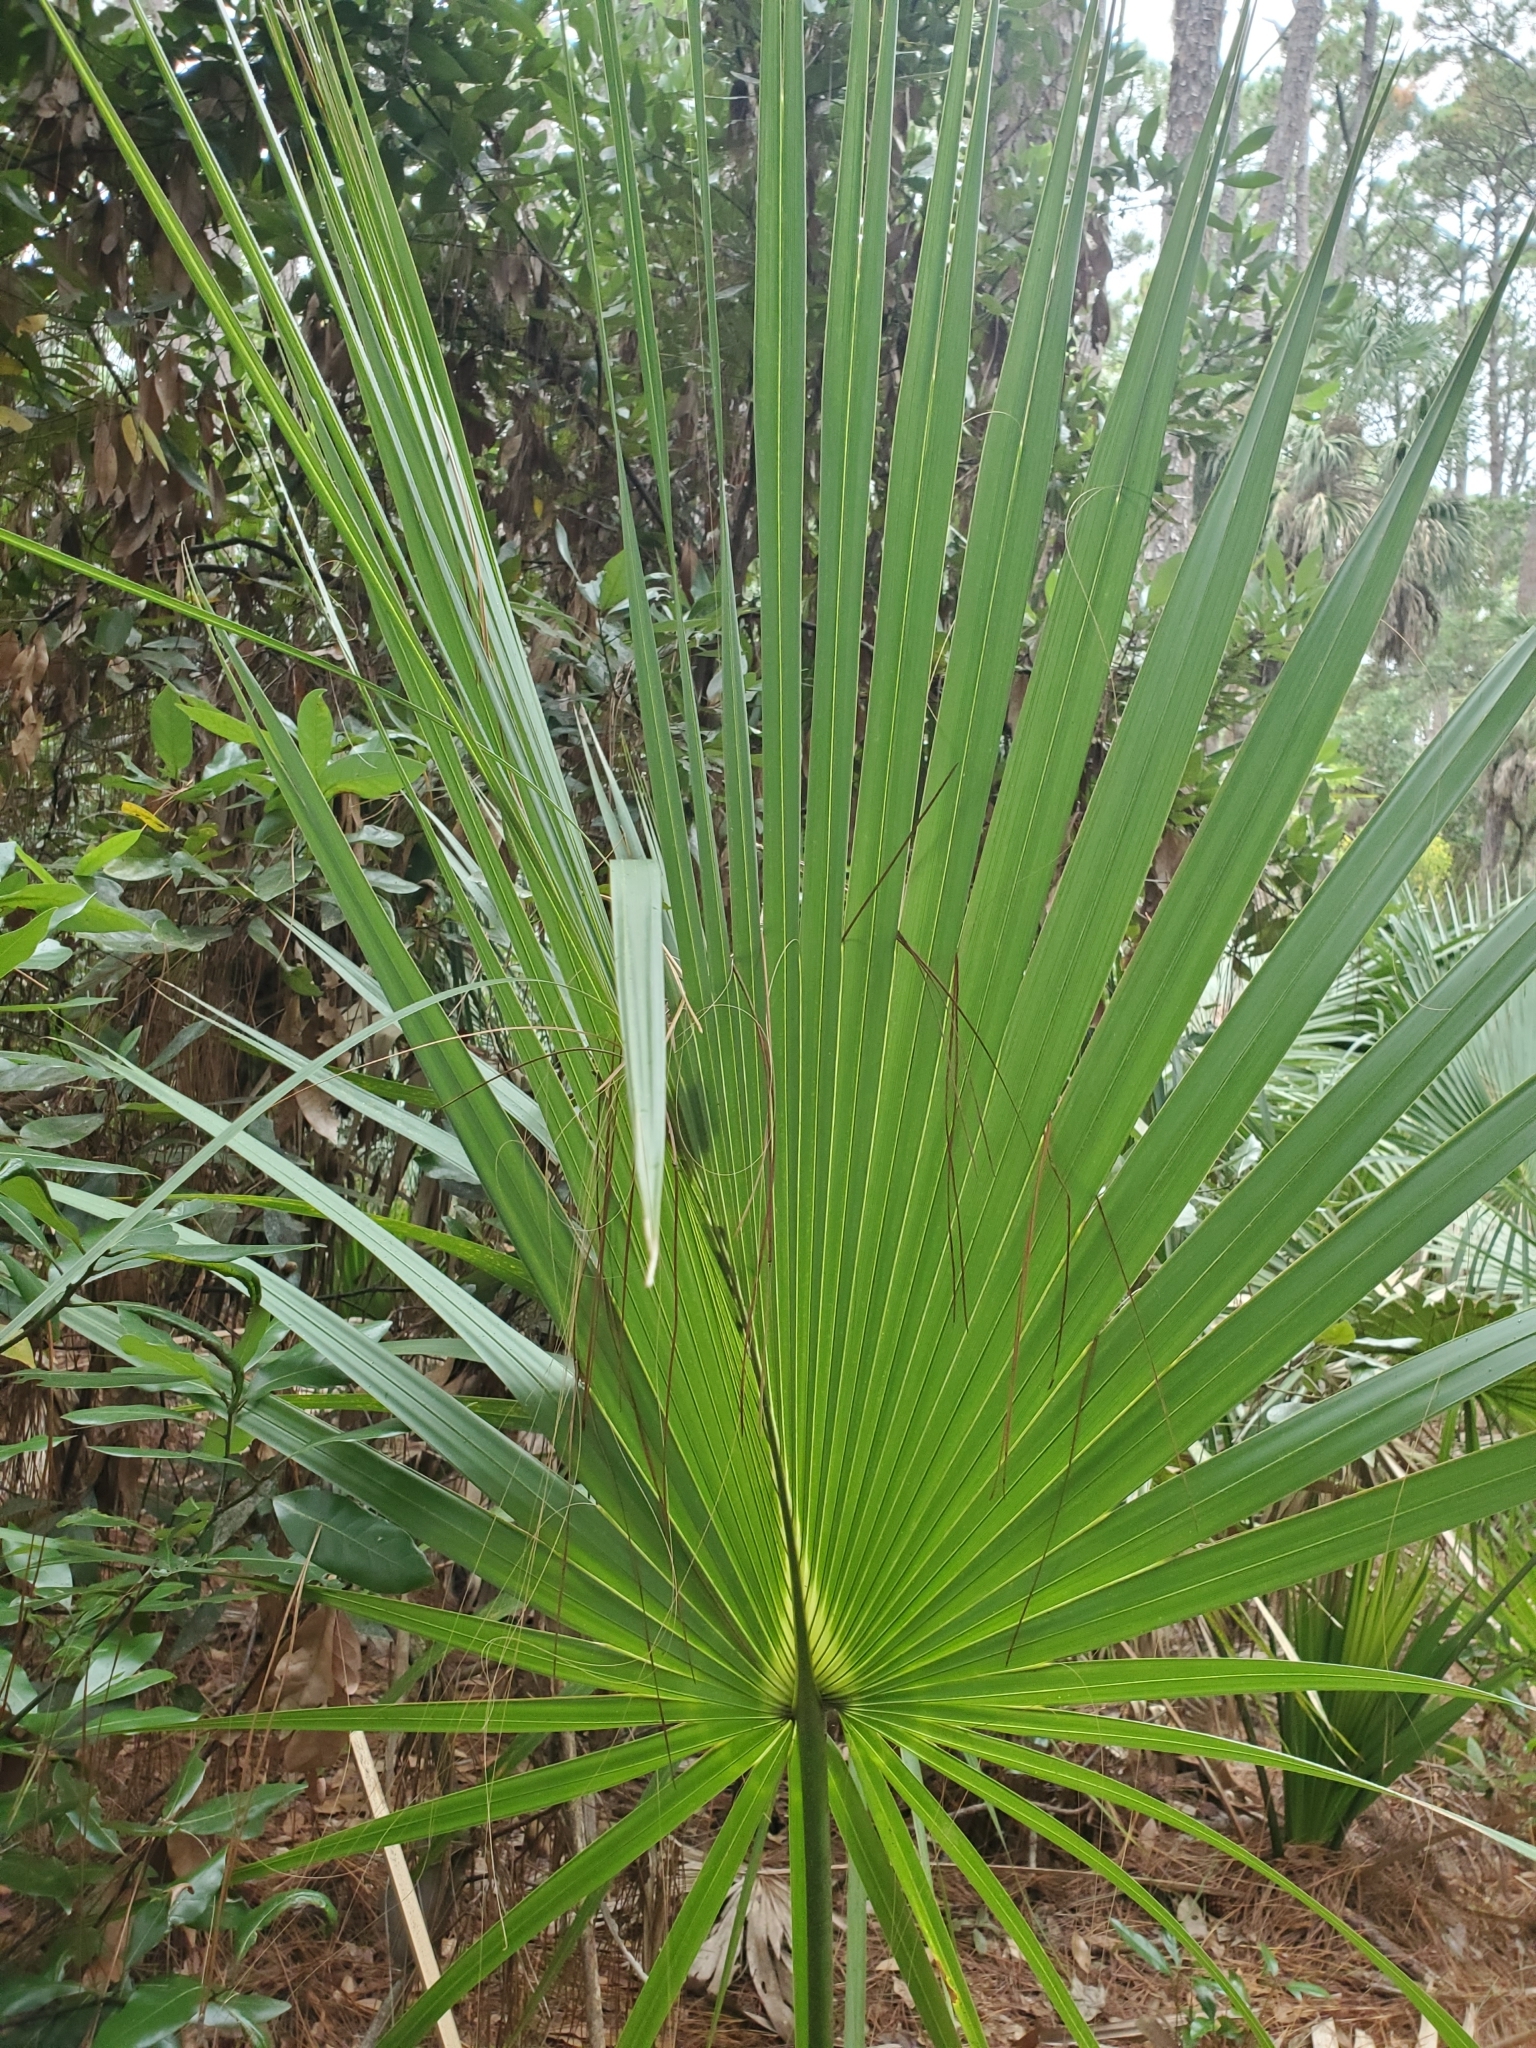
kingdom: Plantae
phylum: Tracheophyta
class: Liliopsida
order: Arecales
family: Arecaceae
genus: Sabal
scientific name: Sabal palmetto
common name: Blue palmetto
